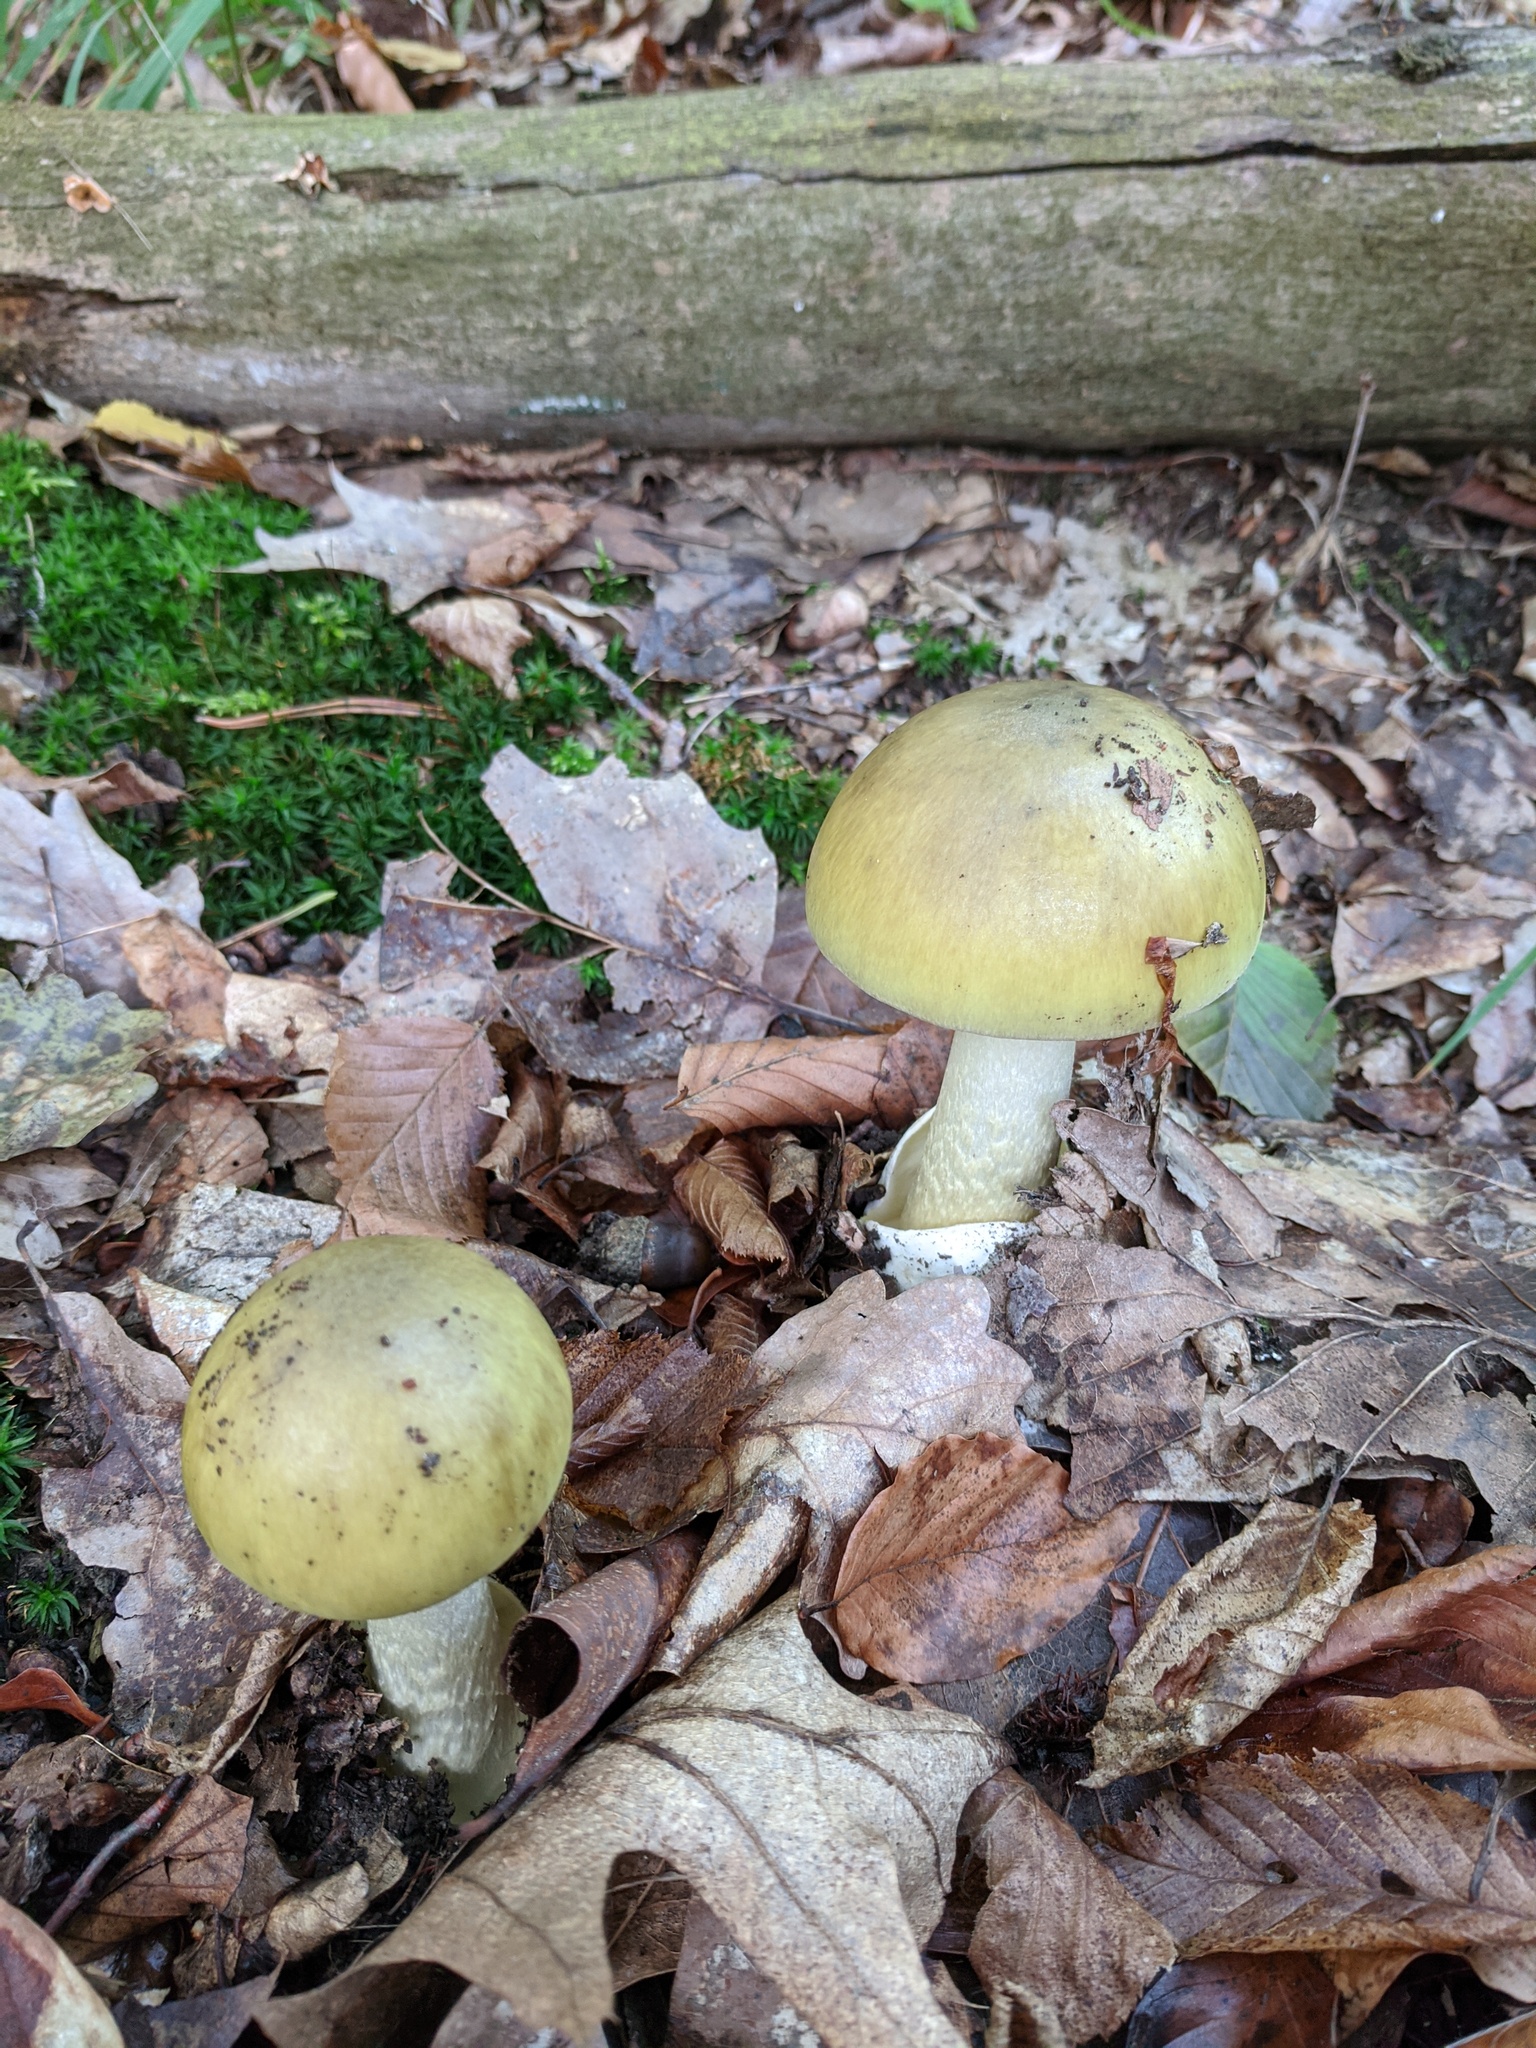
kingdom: Fungi
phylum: Basidiomycota
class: Agaricomycetes
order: Agaricales
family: Amanitaceae
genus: Amanita
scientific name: Amanita phalloides
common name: Death cap
